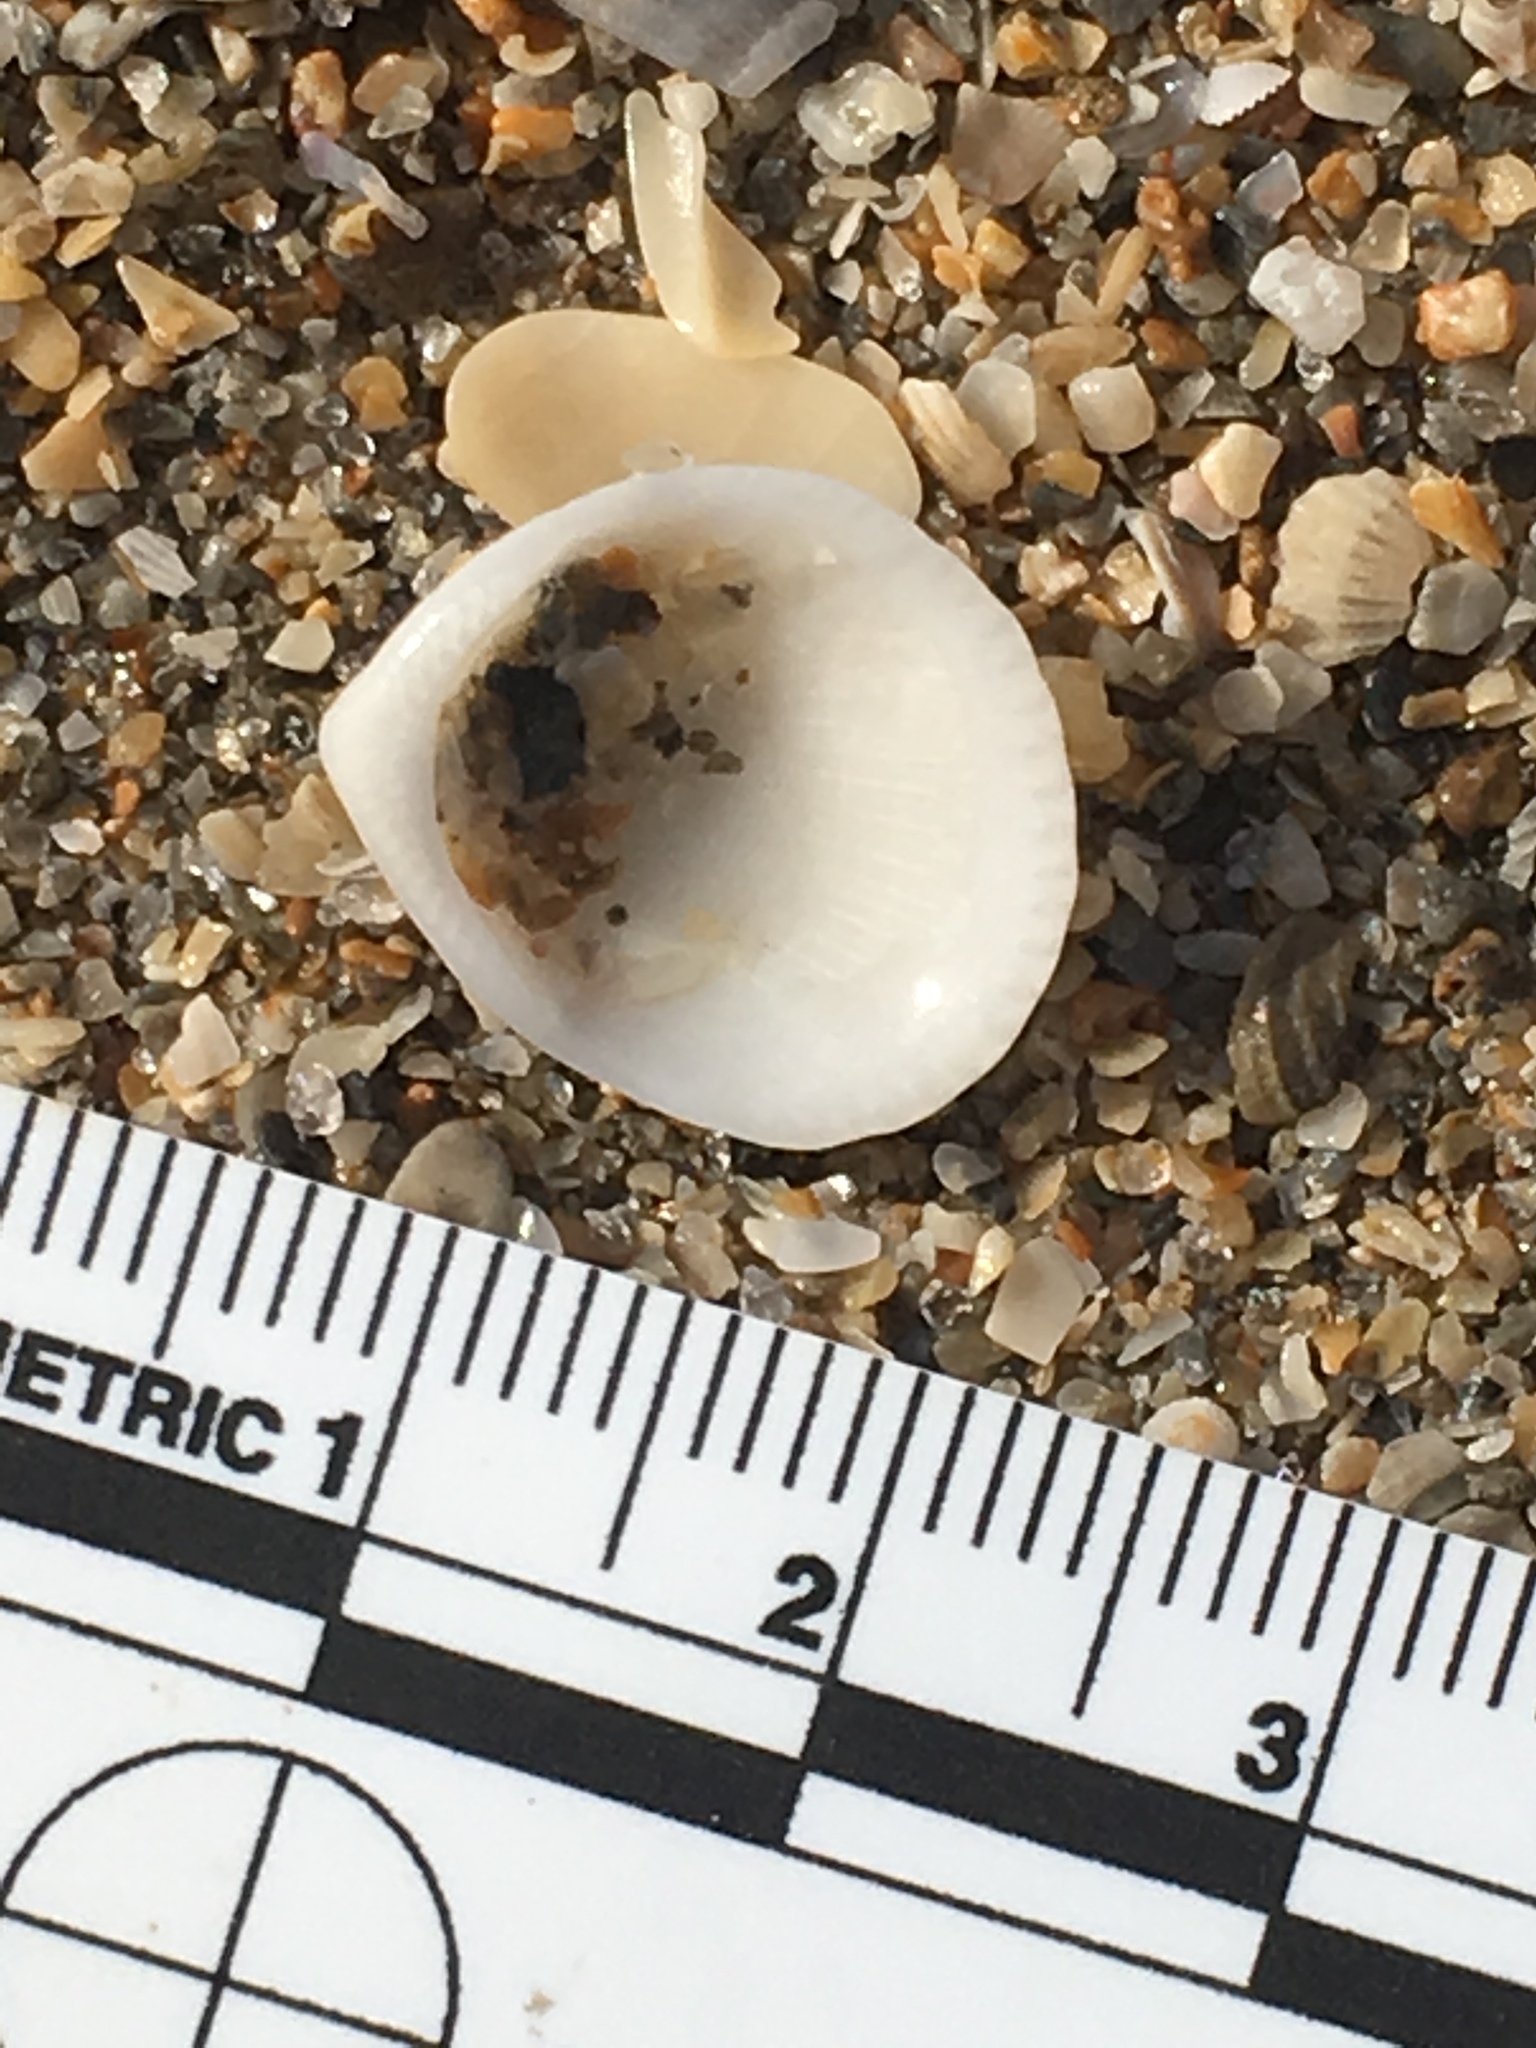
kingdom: Animalia
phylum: Mollusca
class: Bivalvia
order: Arcida
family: Glycymerididae
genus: Tucetona
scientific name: Tucetona pectinata
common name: Comb bittersweet
